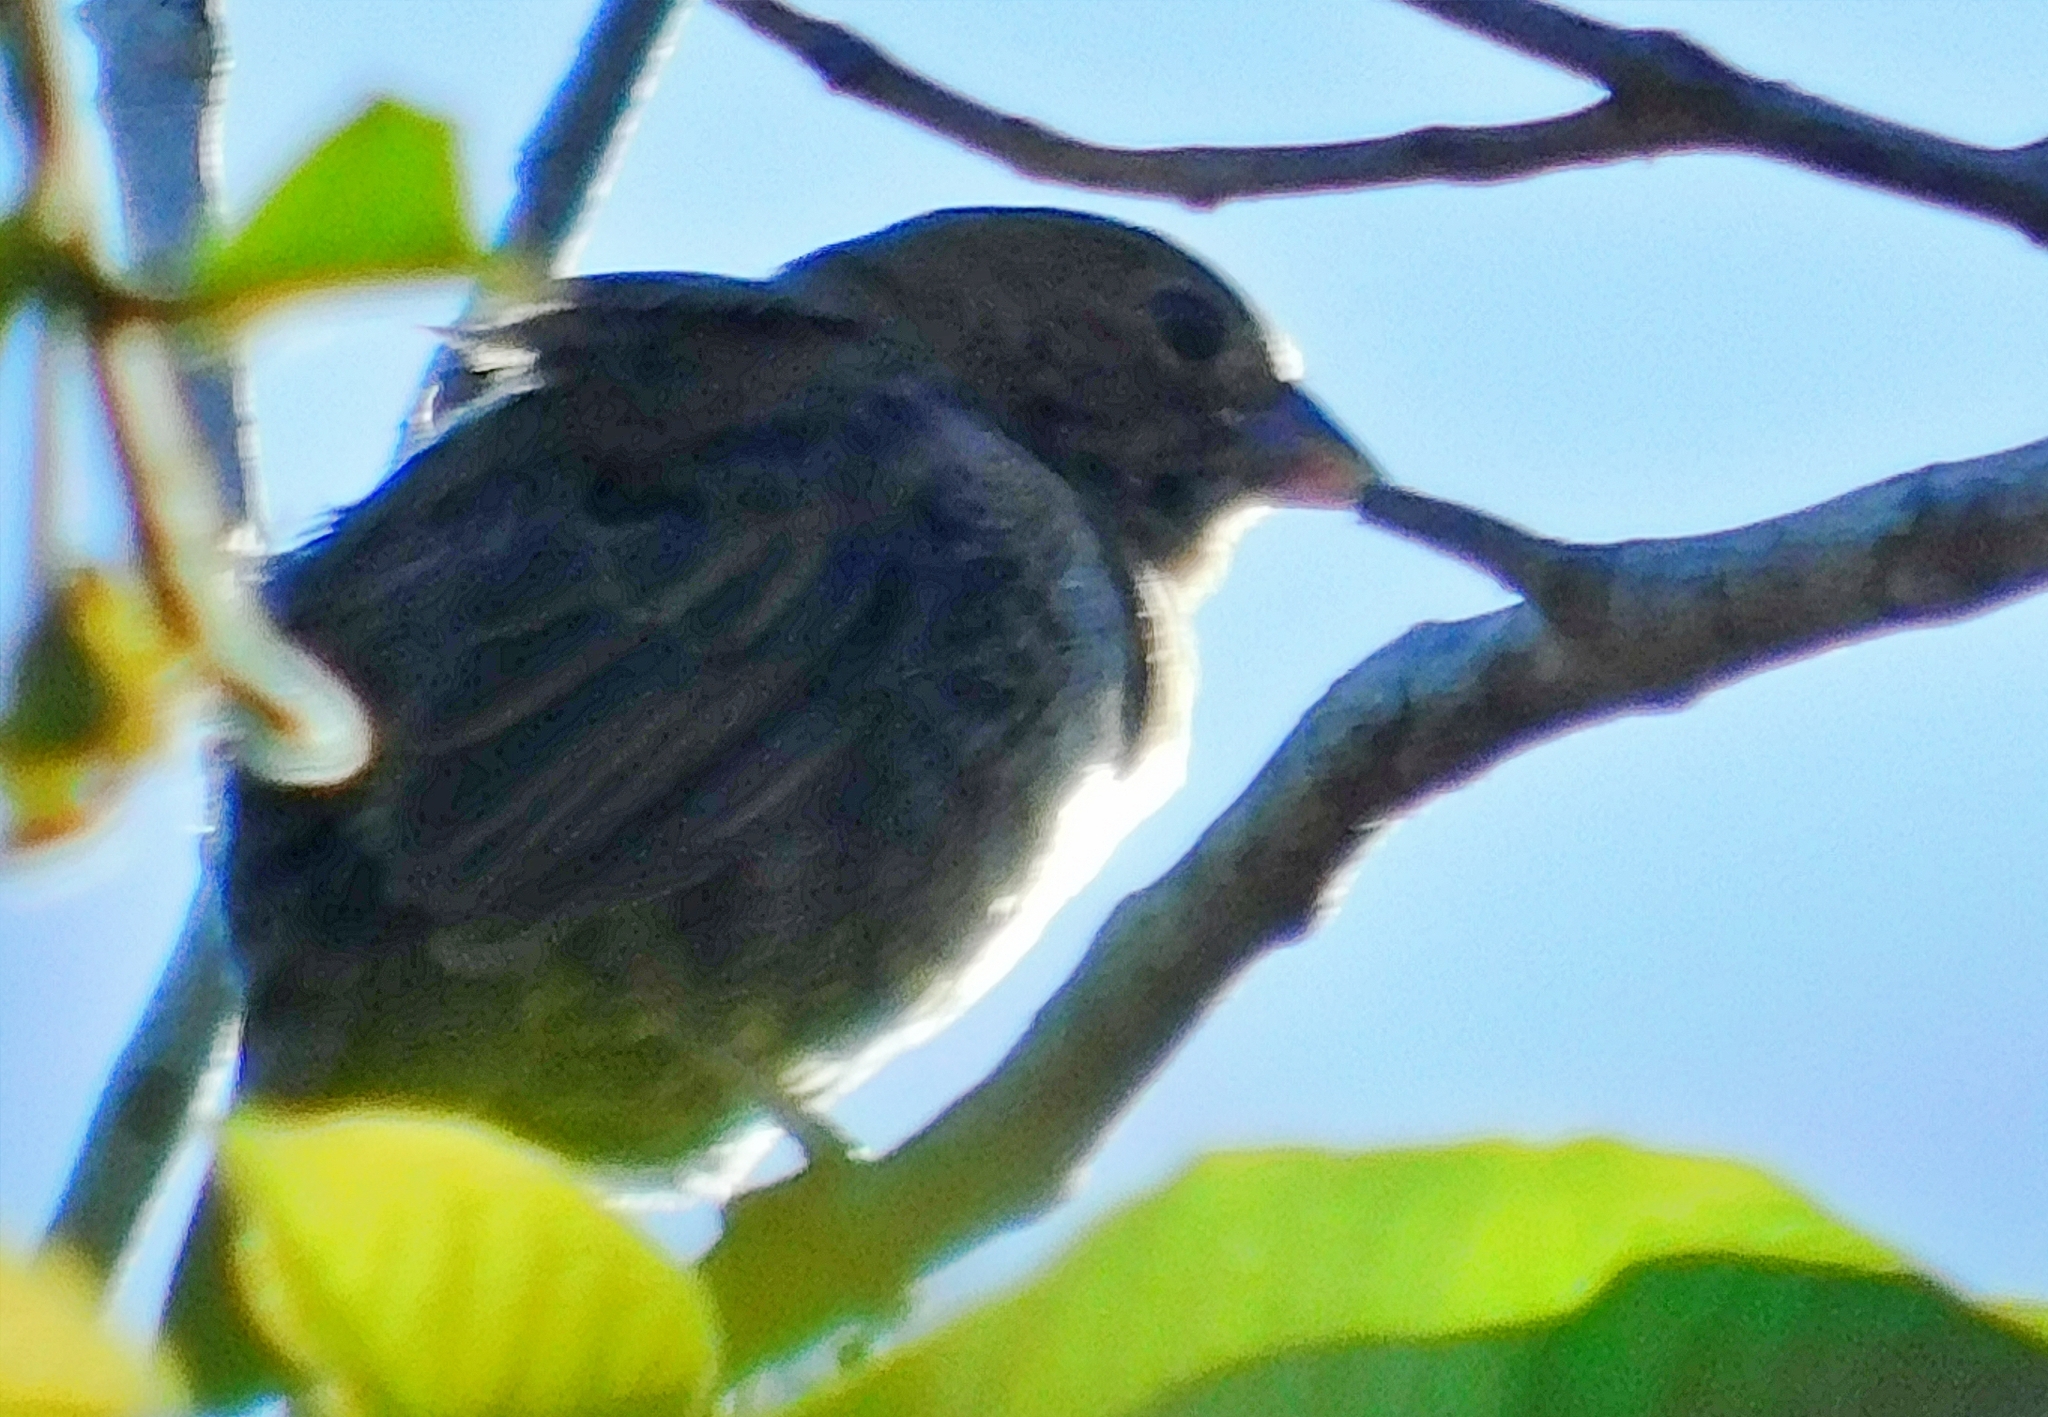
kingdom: Animalia
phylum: Chordata
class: Aves
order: Passeriformes
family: Thraupidae
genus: Volatinia
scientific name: Volatinia jacarina
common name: Blue-black grassquit
